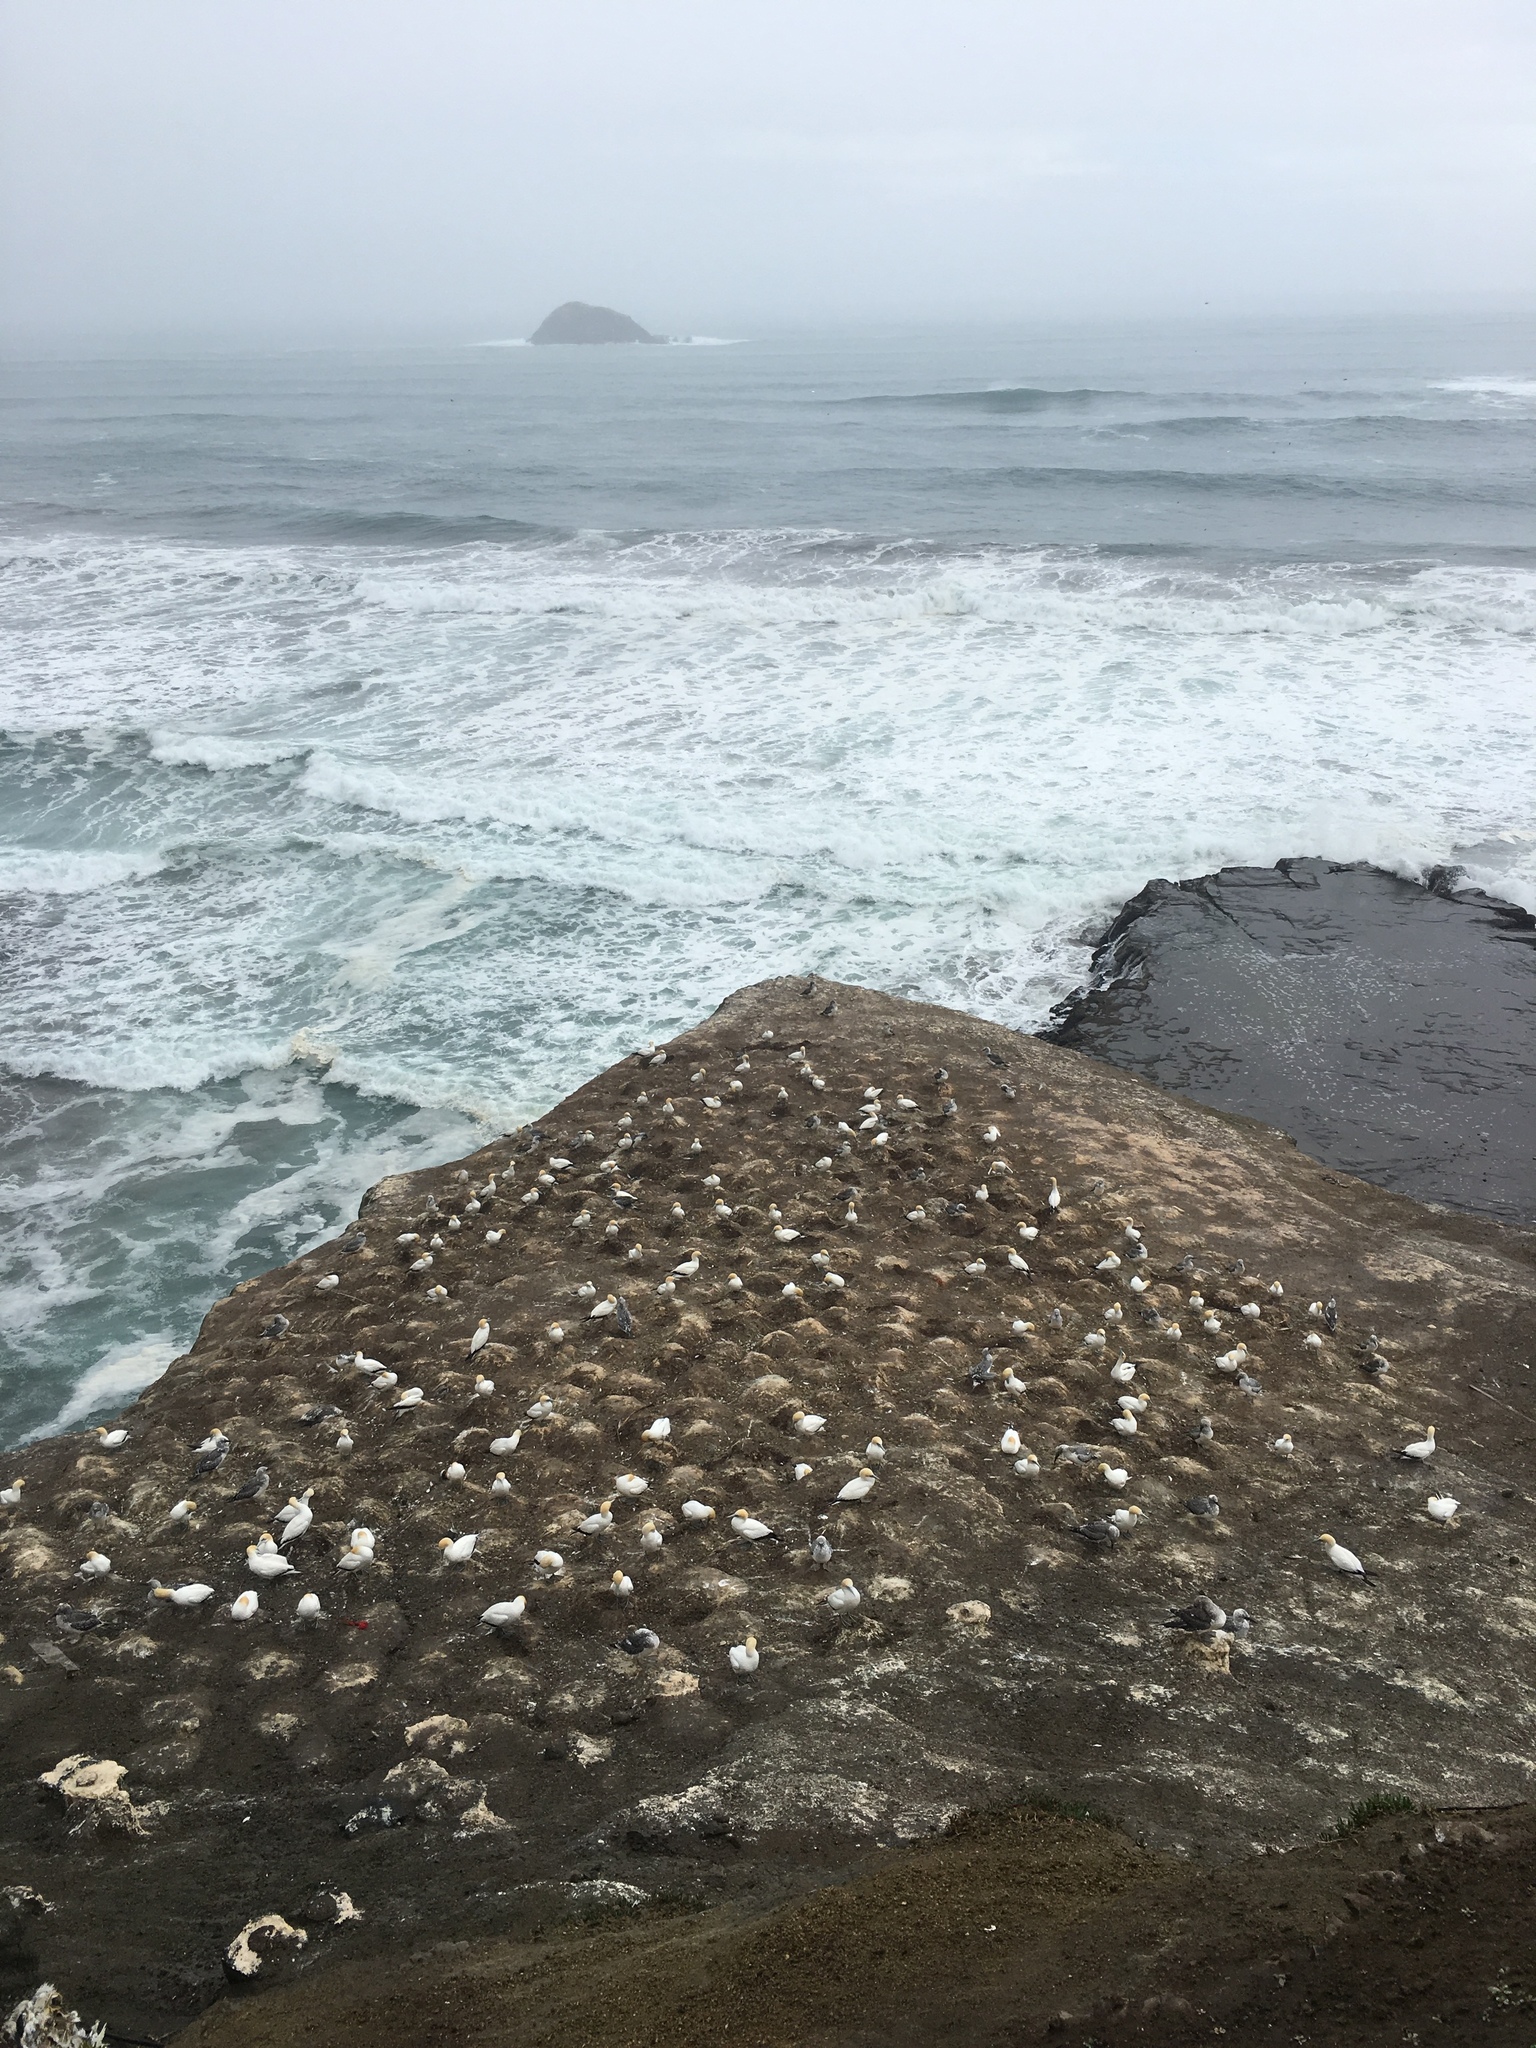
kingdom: Animalia
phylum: Chordata
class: Aves
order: Suliformes
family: Sulidae
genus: Morus
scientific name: Morus serrator
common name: Australasian gannet
